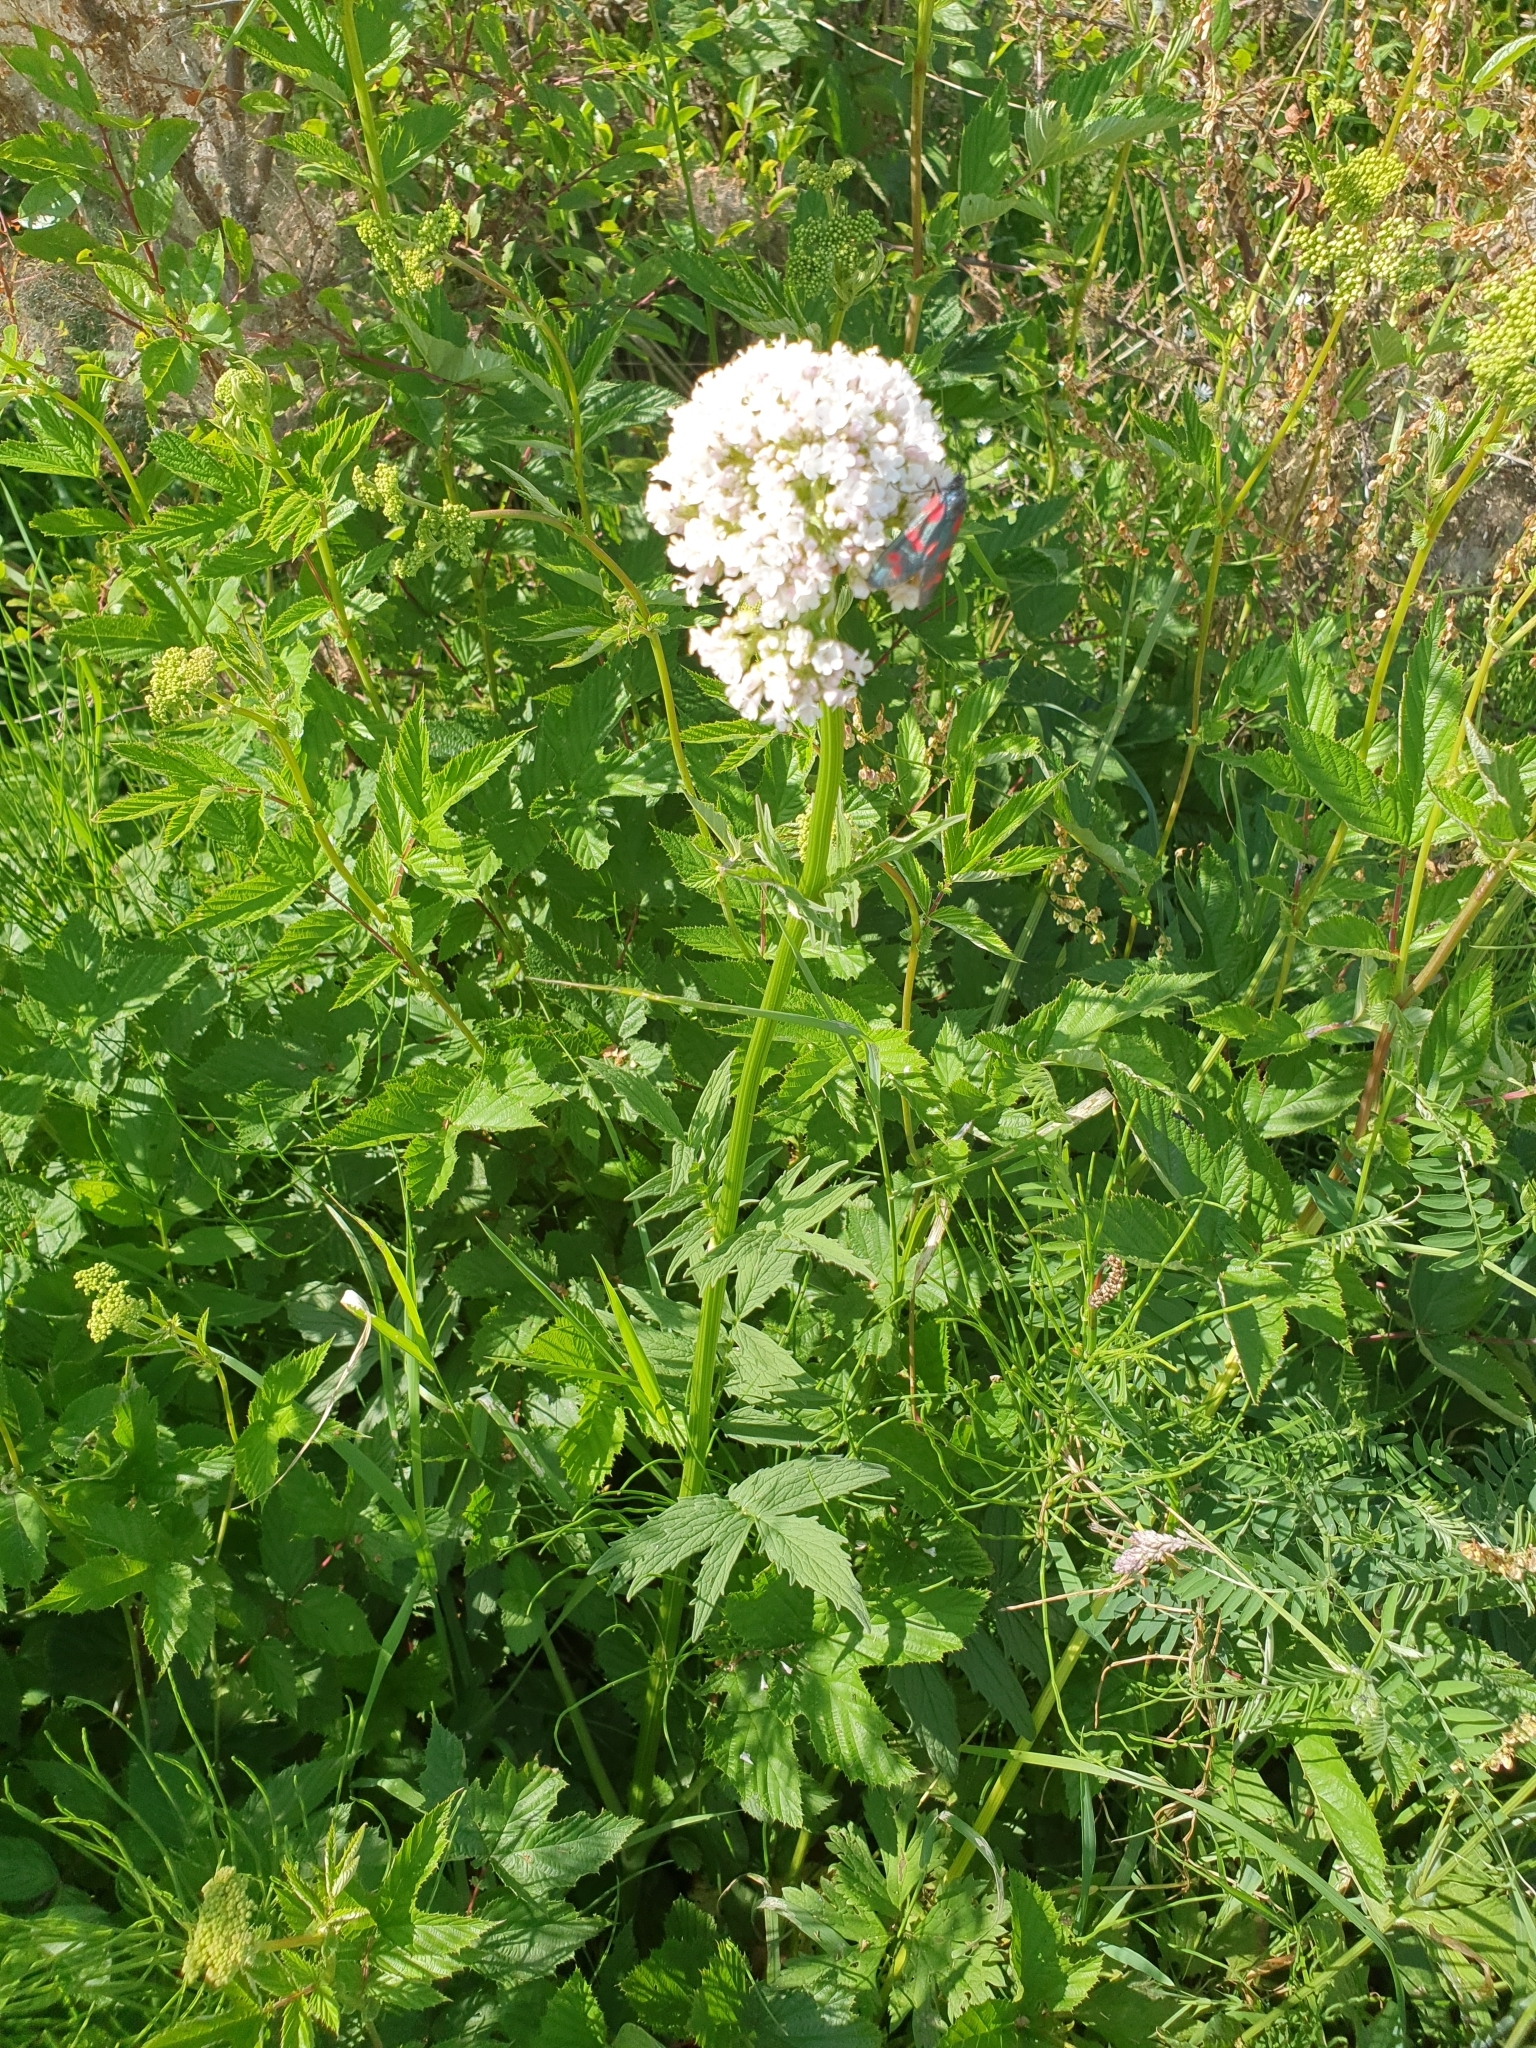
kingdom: Plantae
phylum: Tracheophyta
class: Magnoliopsida
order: Dipsacales
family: Caprifoliaceae
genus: Valeriana
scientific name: Valeriana officinalis
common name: Common valerian
